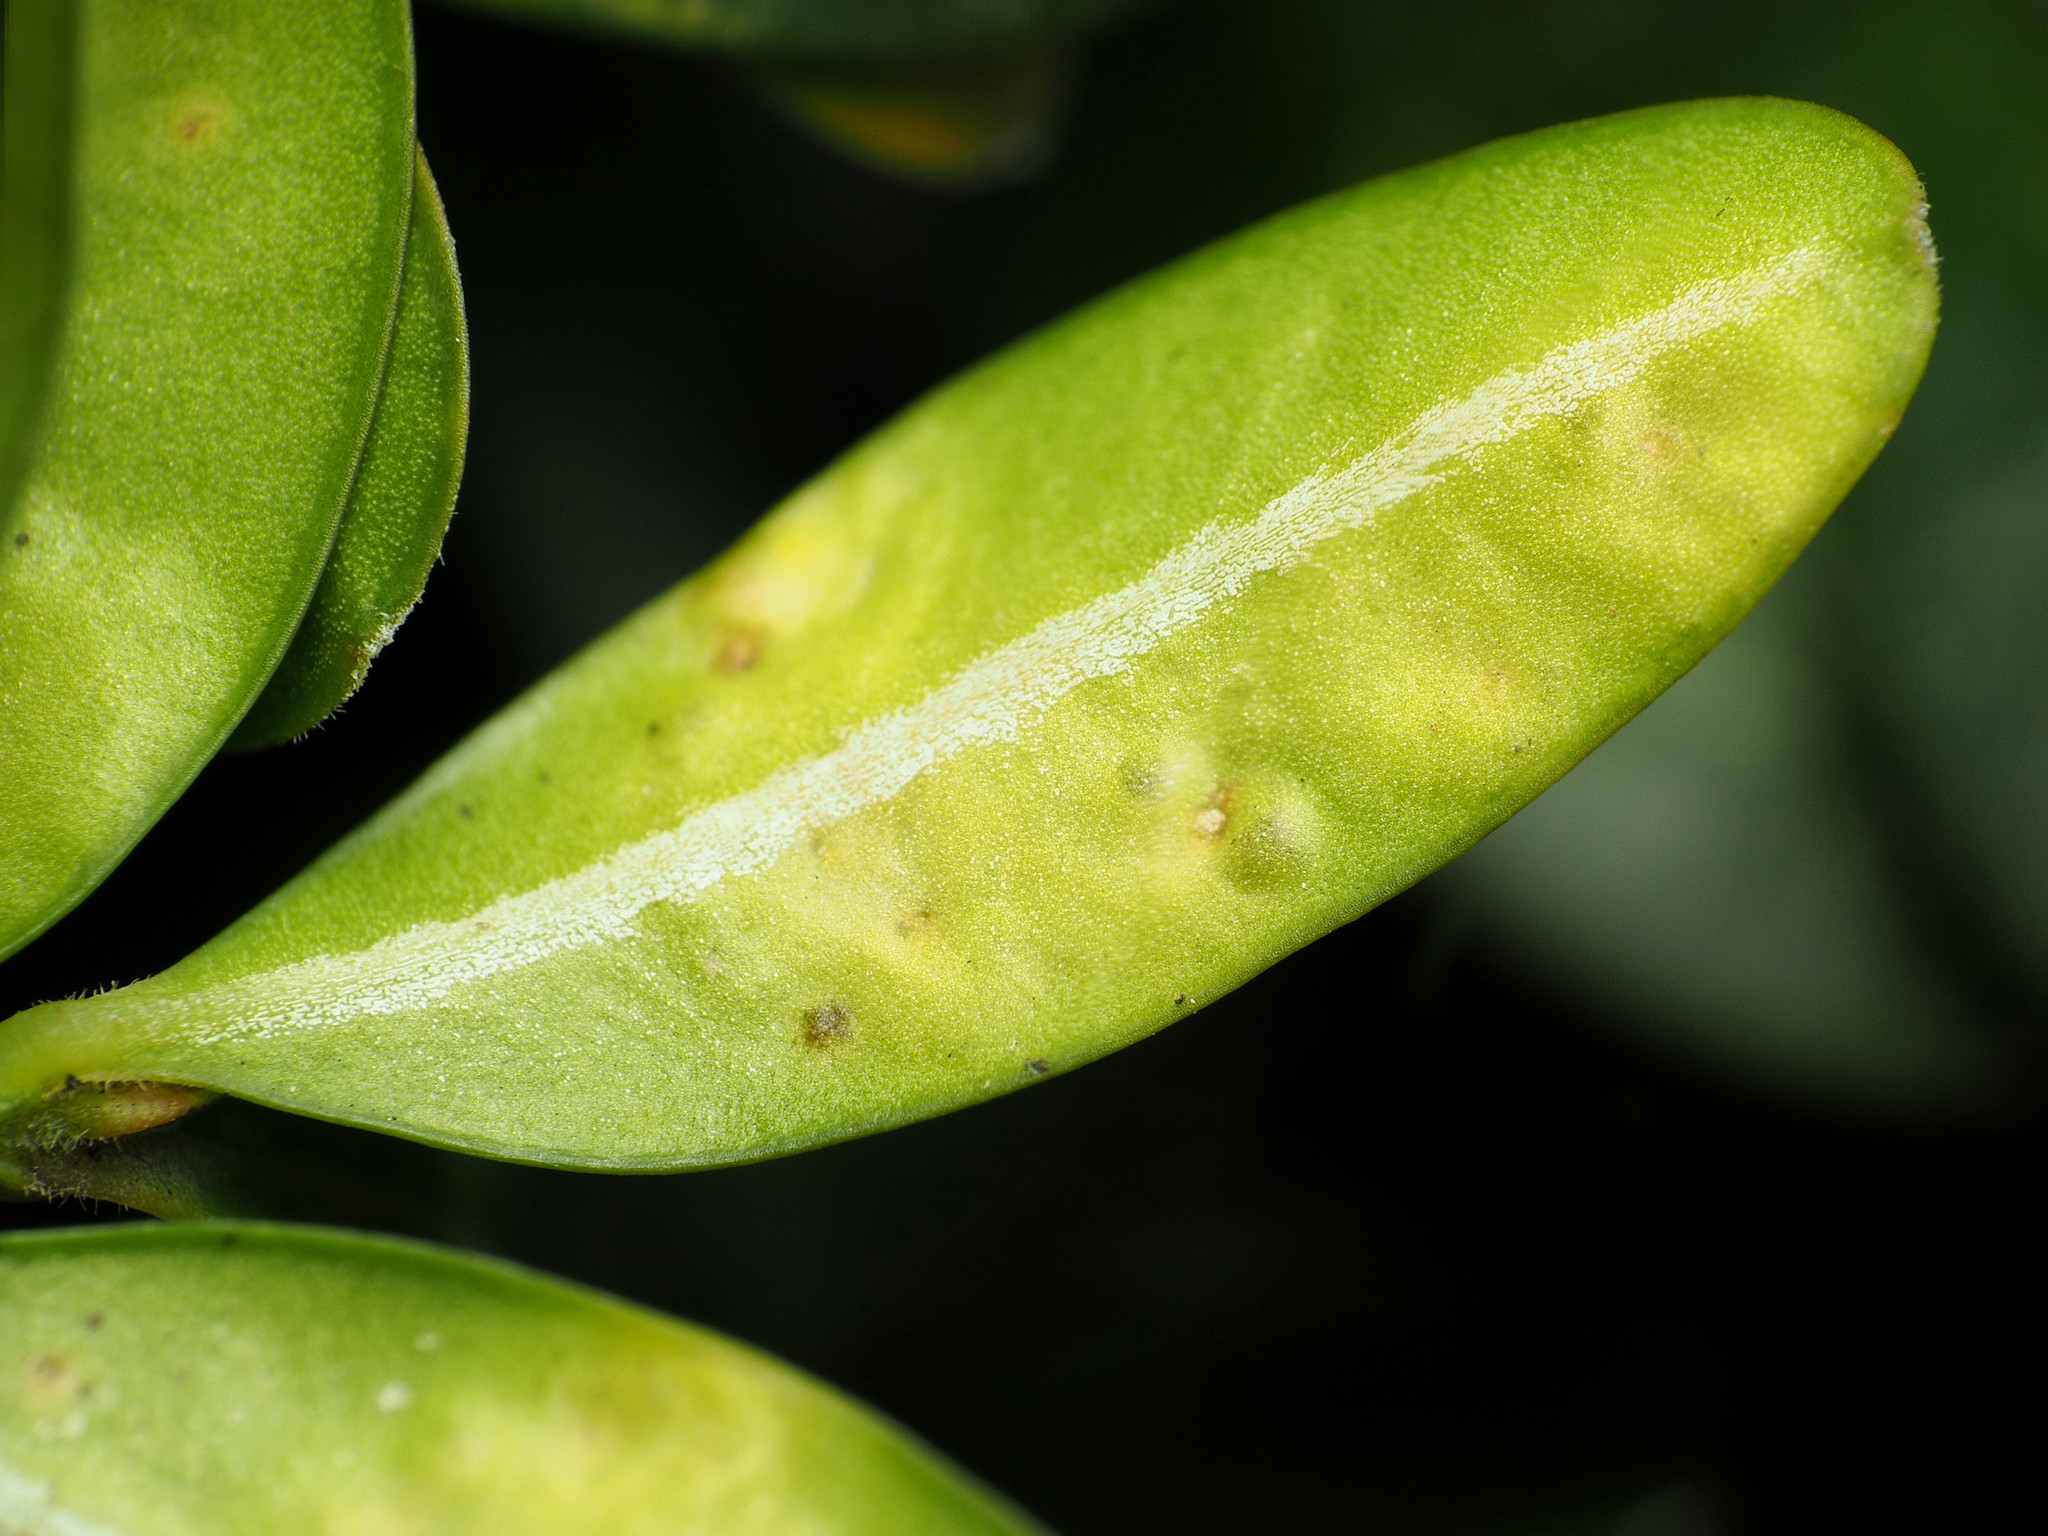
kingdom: Animalia
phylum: Arthropoda
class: Insecta
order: Diptera
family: Cecidomyiidae
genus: Monarthropalpus
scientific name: Monarthropalpus flavus
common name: Boxwood leafminer
